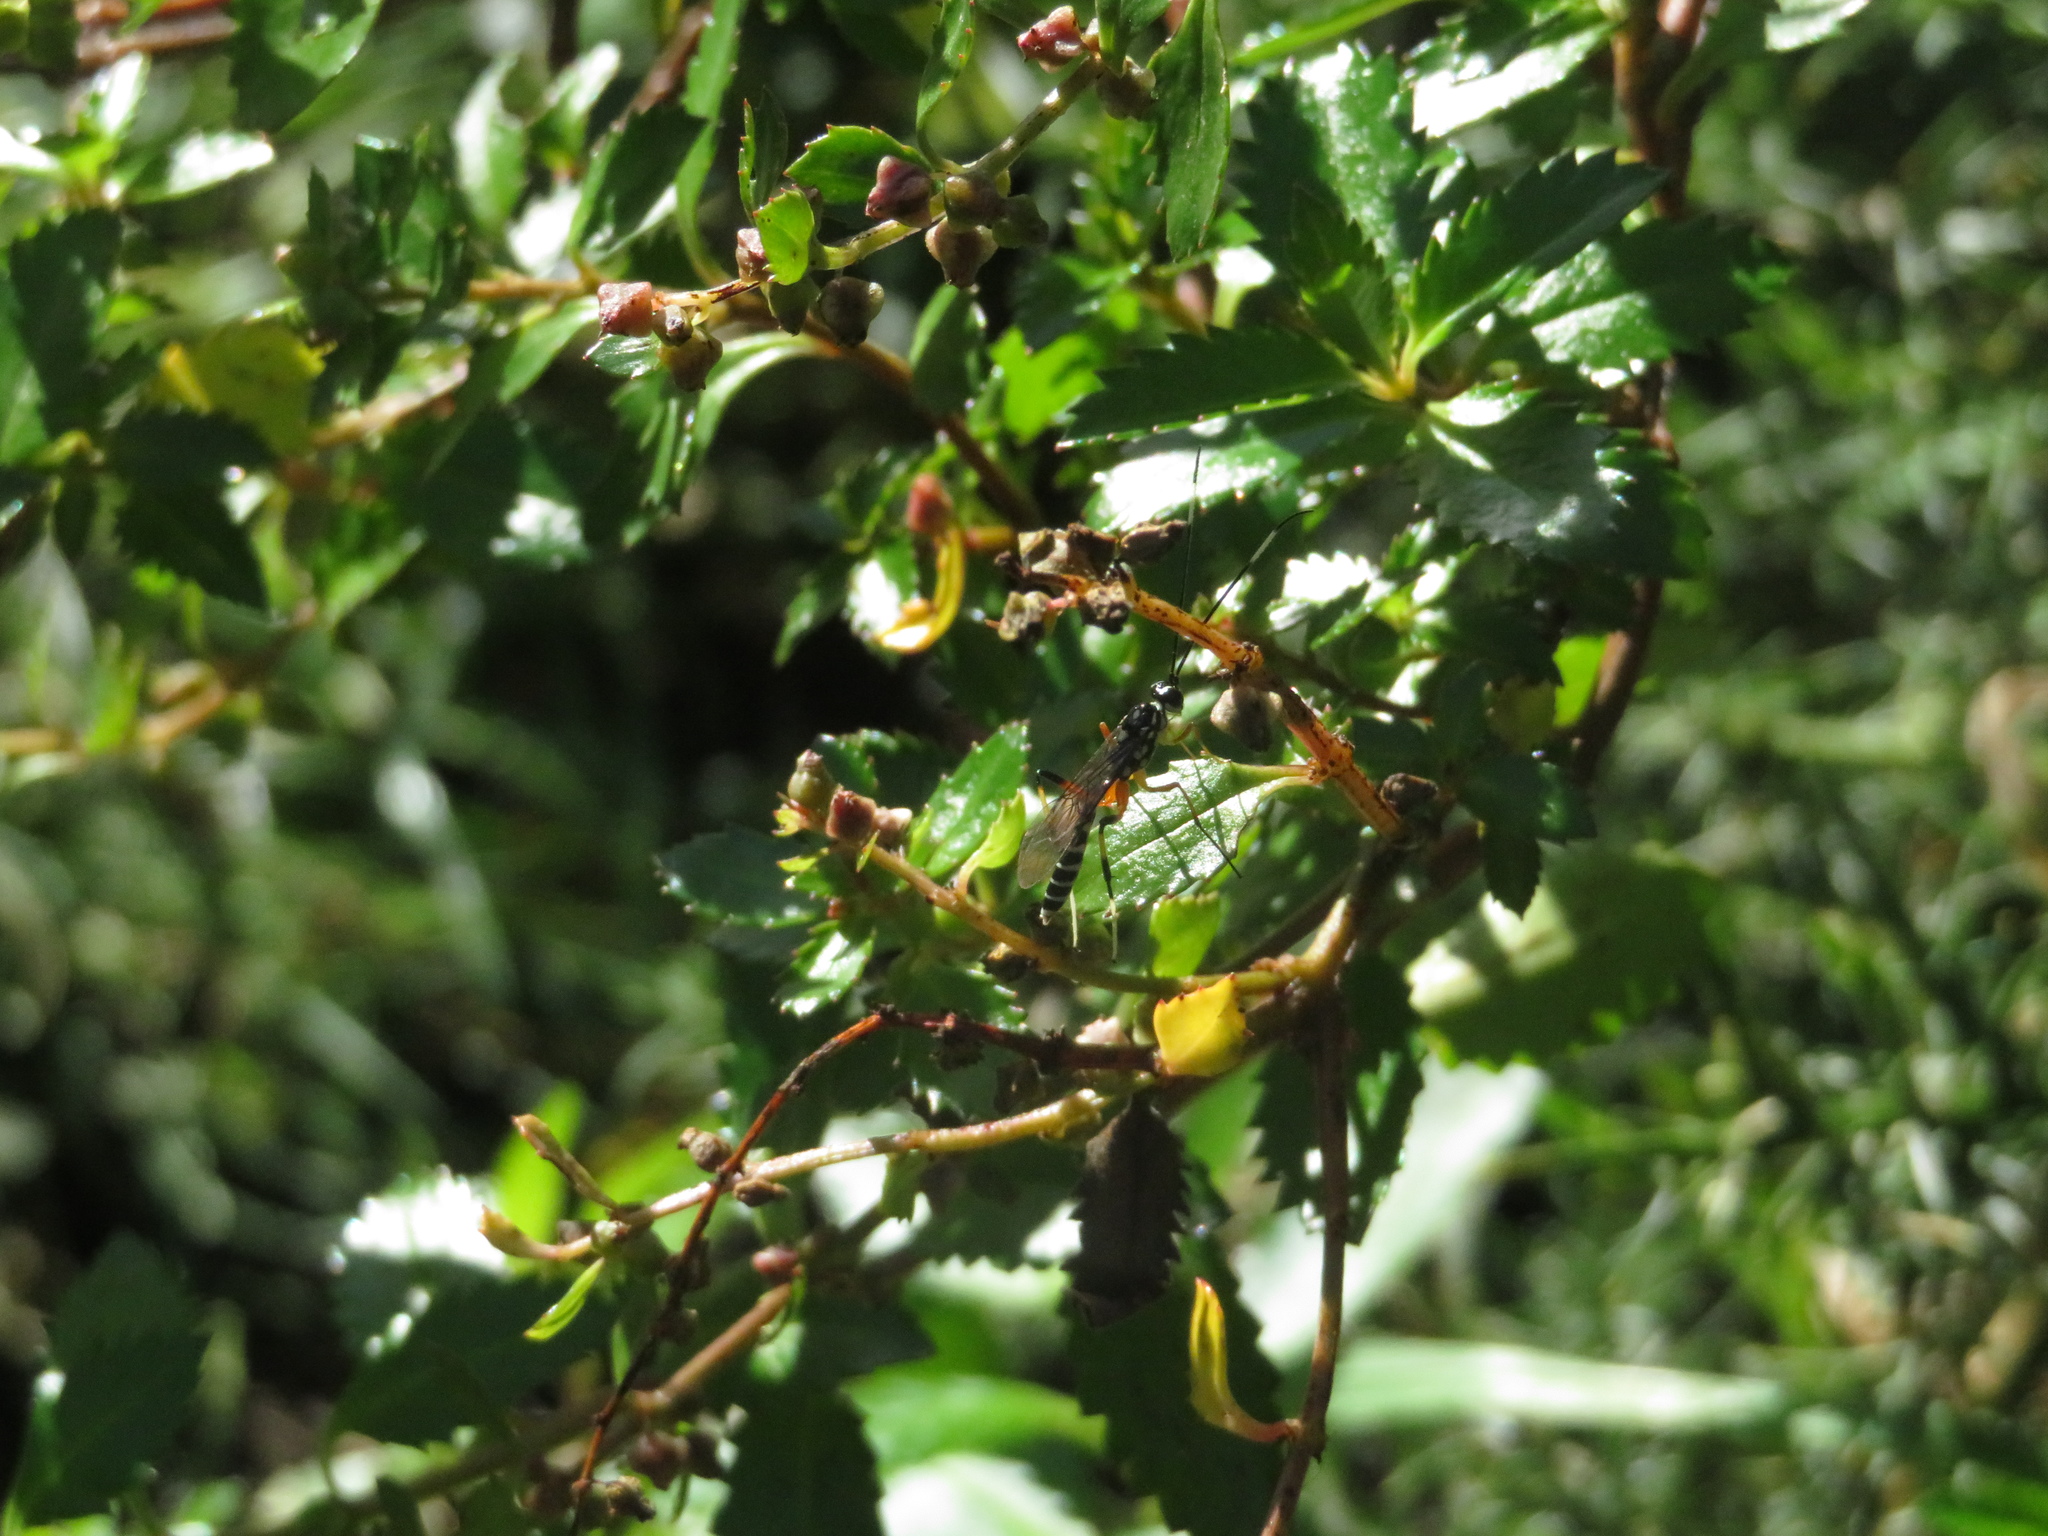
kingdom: Animalia
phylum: Arthropoda
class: Insecta
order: Hymenoptera
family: Ichneumonidae
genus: Xanthocryptus
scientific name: Xanthocryptus novozealandicus
